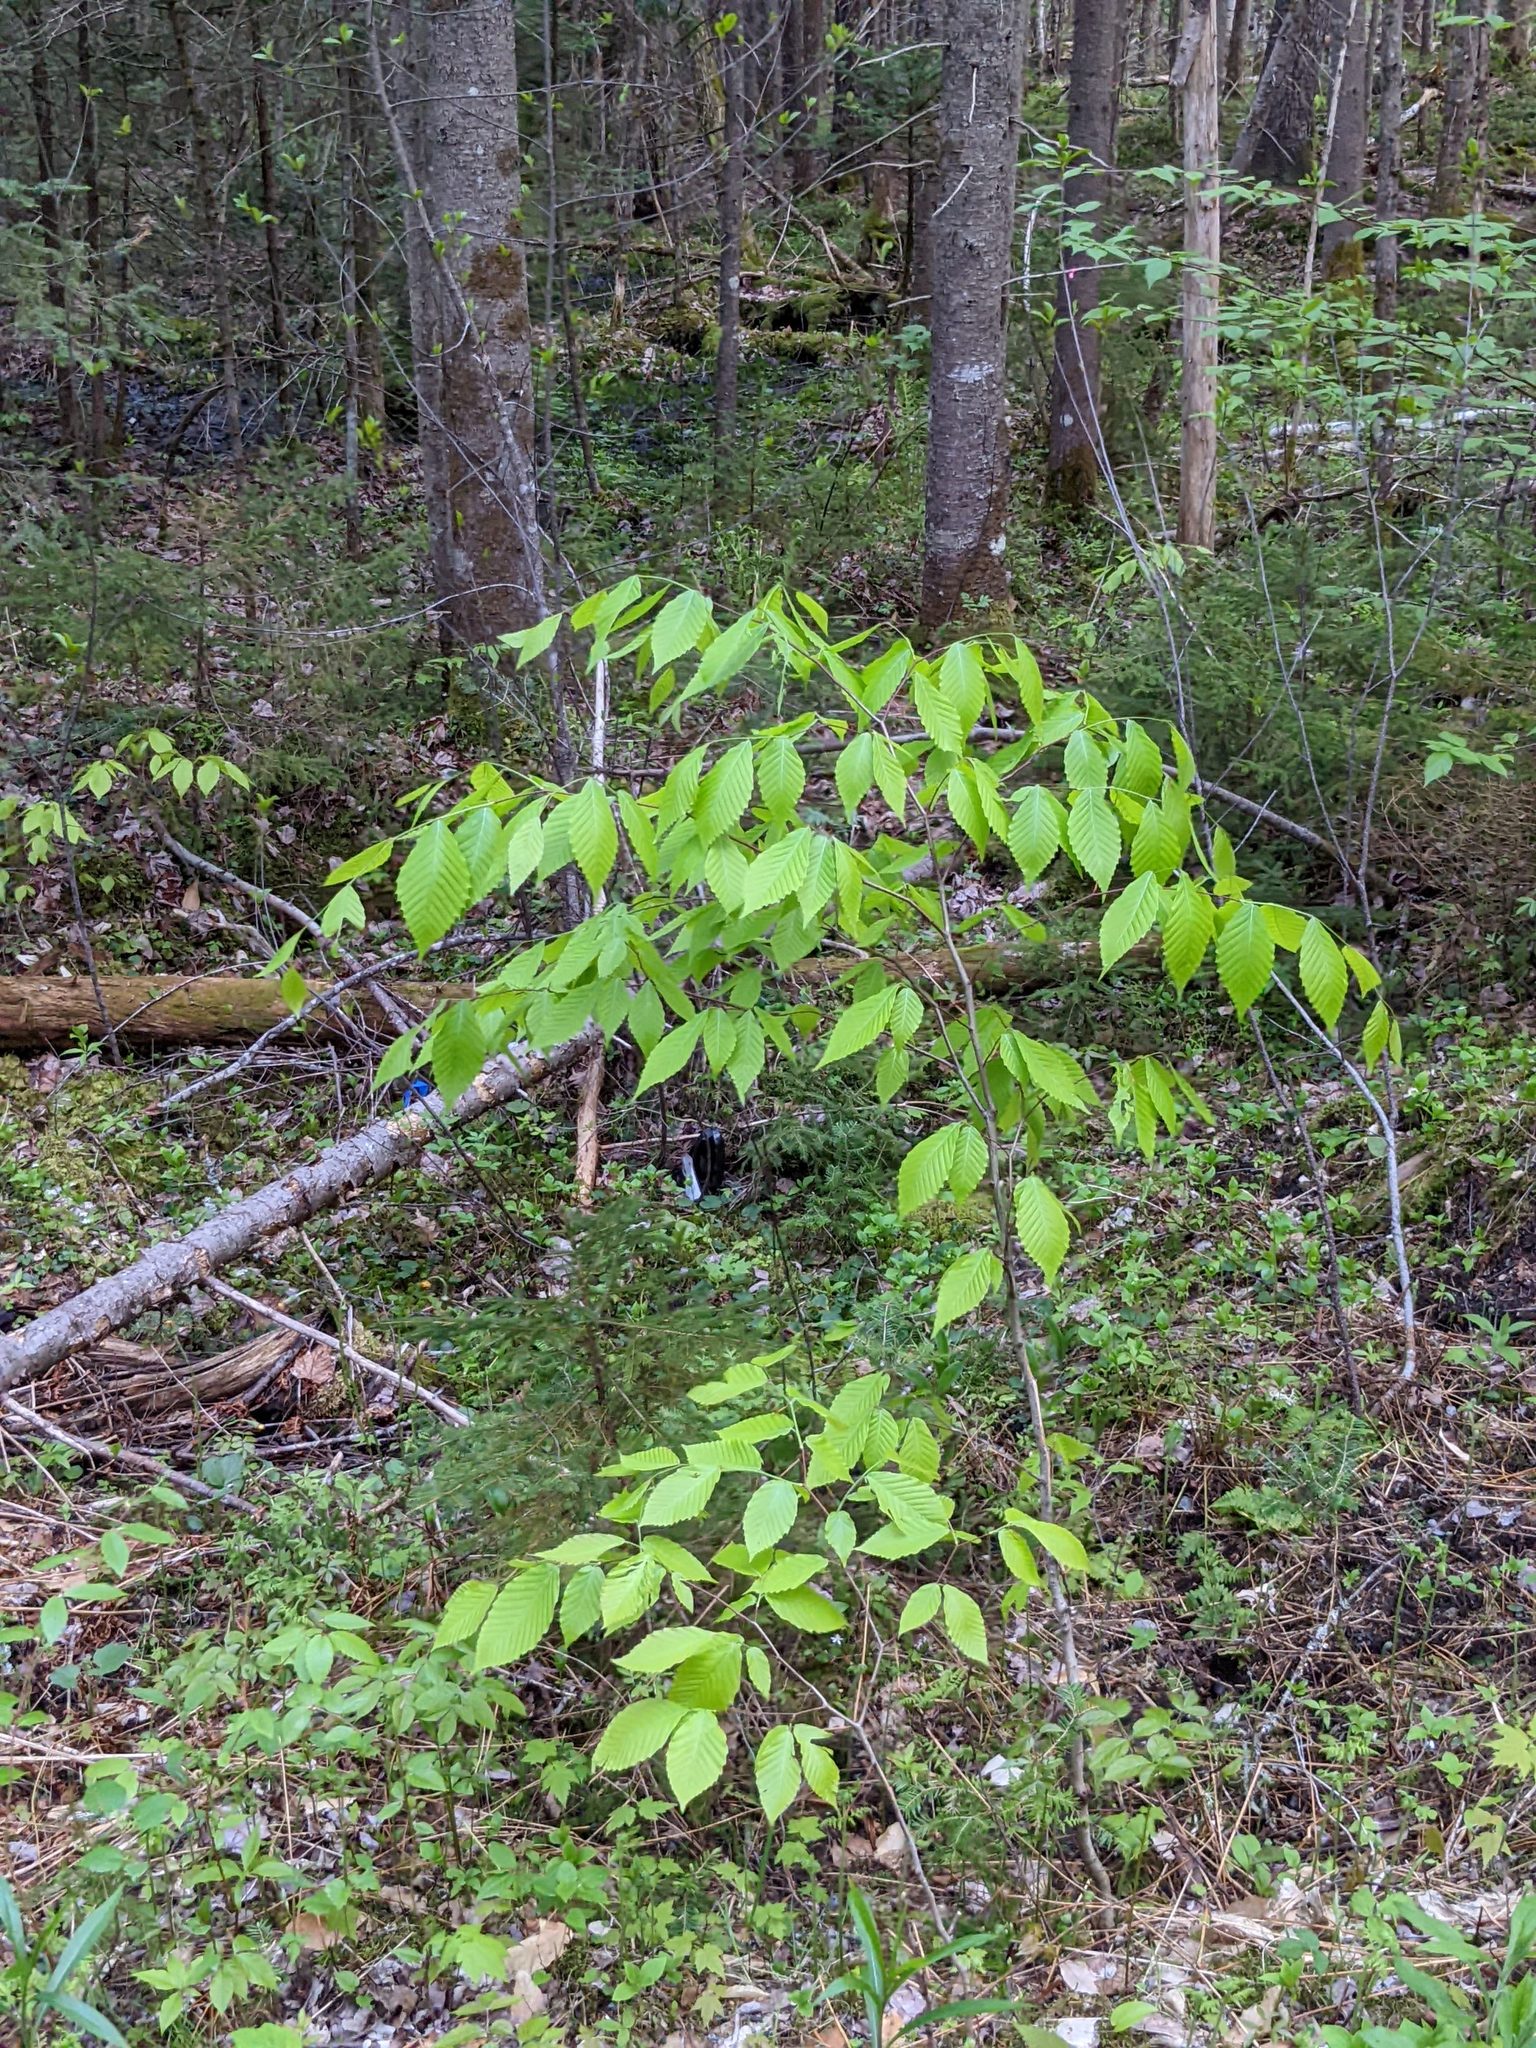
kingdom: Plantae
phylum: Tracheophyta
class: Magnoliopsida
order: Fagales
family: Fagaceae
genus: Fagus
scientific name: Fagus grandifolia
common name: American beech
